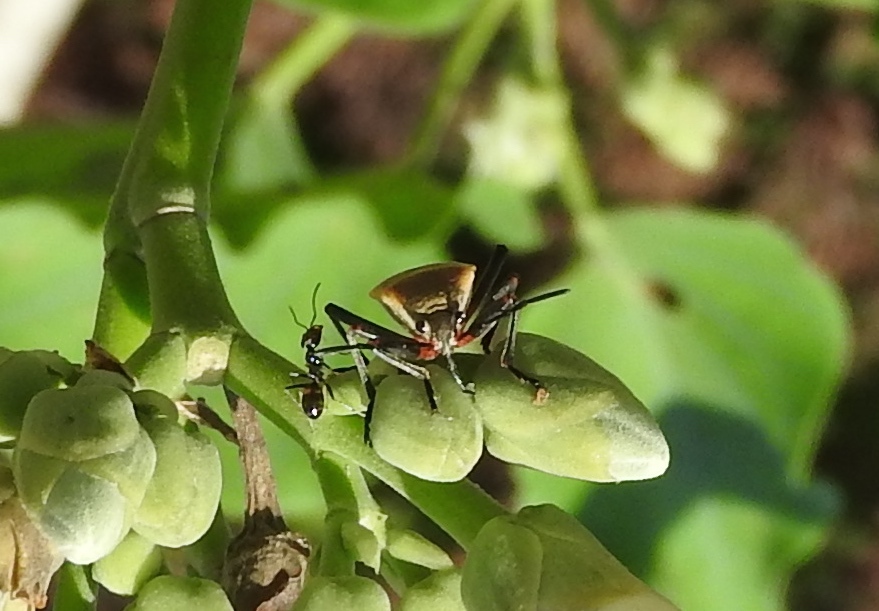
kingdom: Animalia
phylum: Arthropoda
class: Insecta
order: Hymenoptera
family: Formicidae
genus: Dorymyrmex
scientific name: Dorymyrmex
